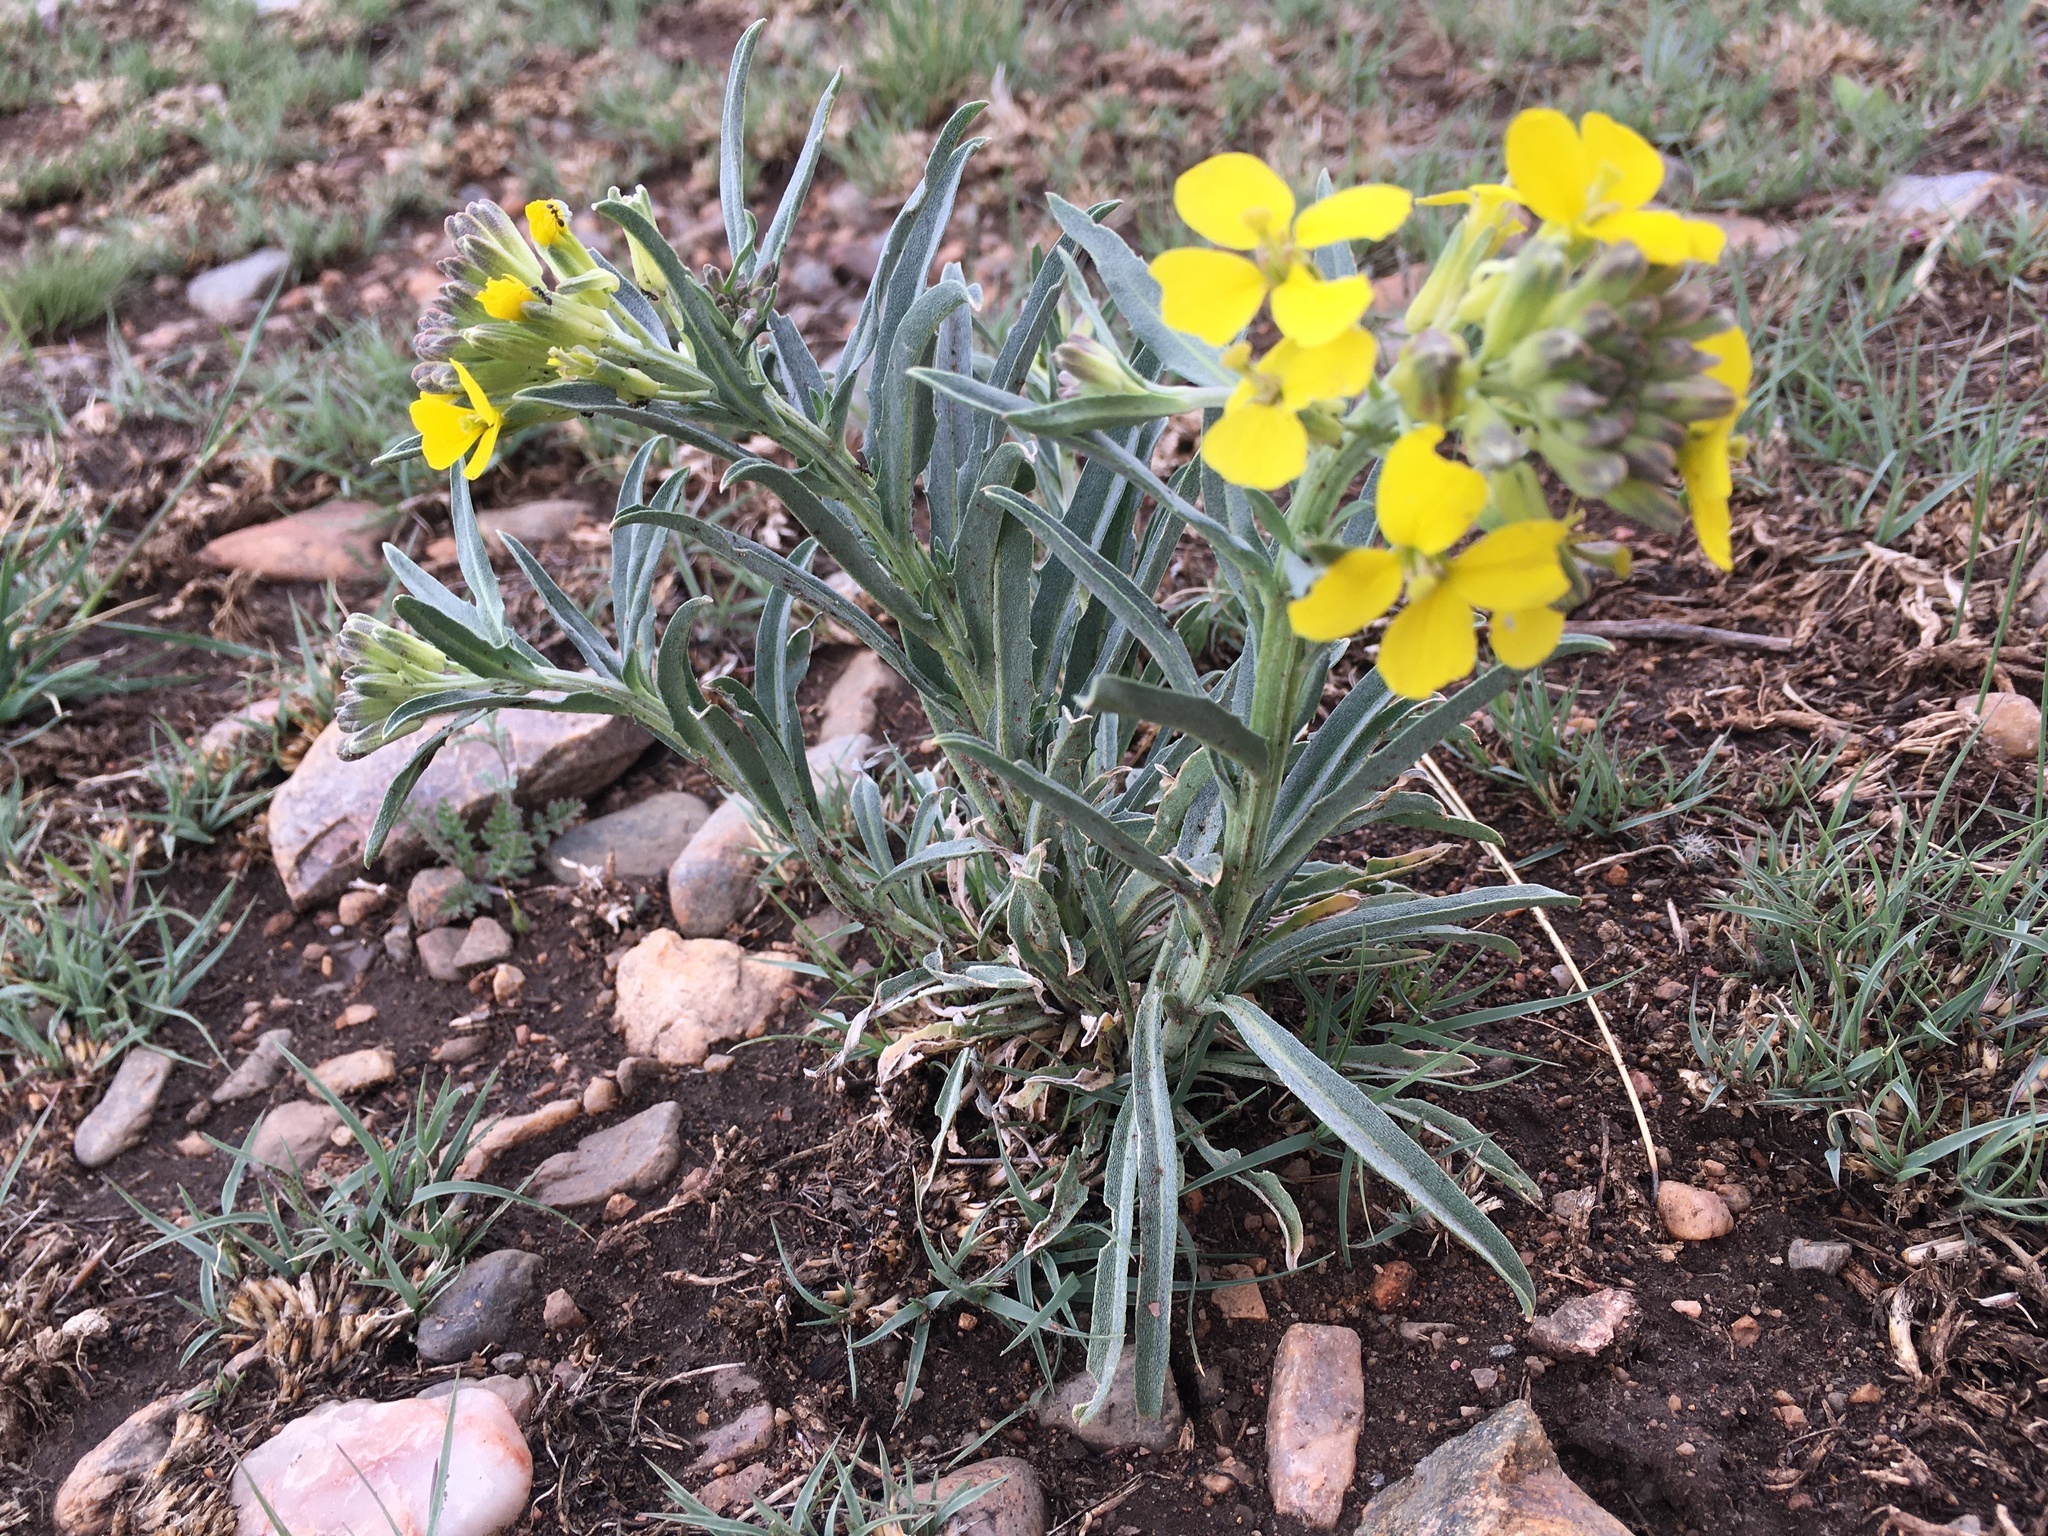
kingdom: Plantae
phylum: Tracheophyta
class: Magnoliopsida
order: Brassicales
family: Brassicaceae
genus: Erysimum
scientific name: Erysimum asperum
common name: Western wallflower
